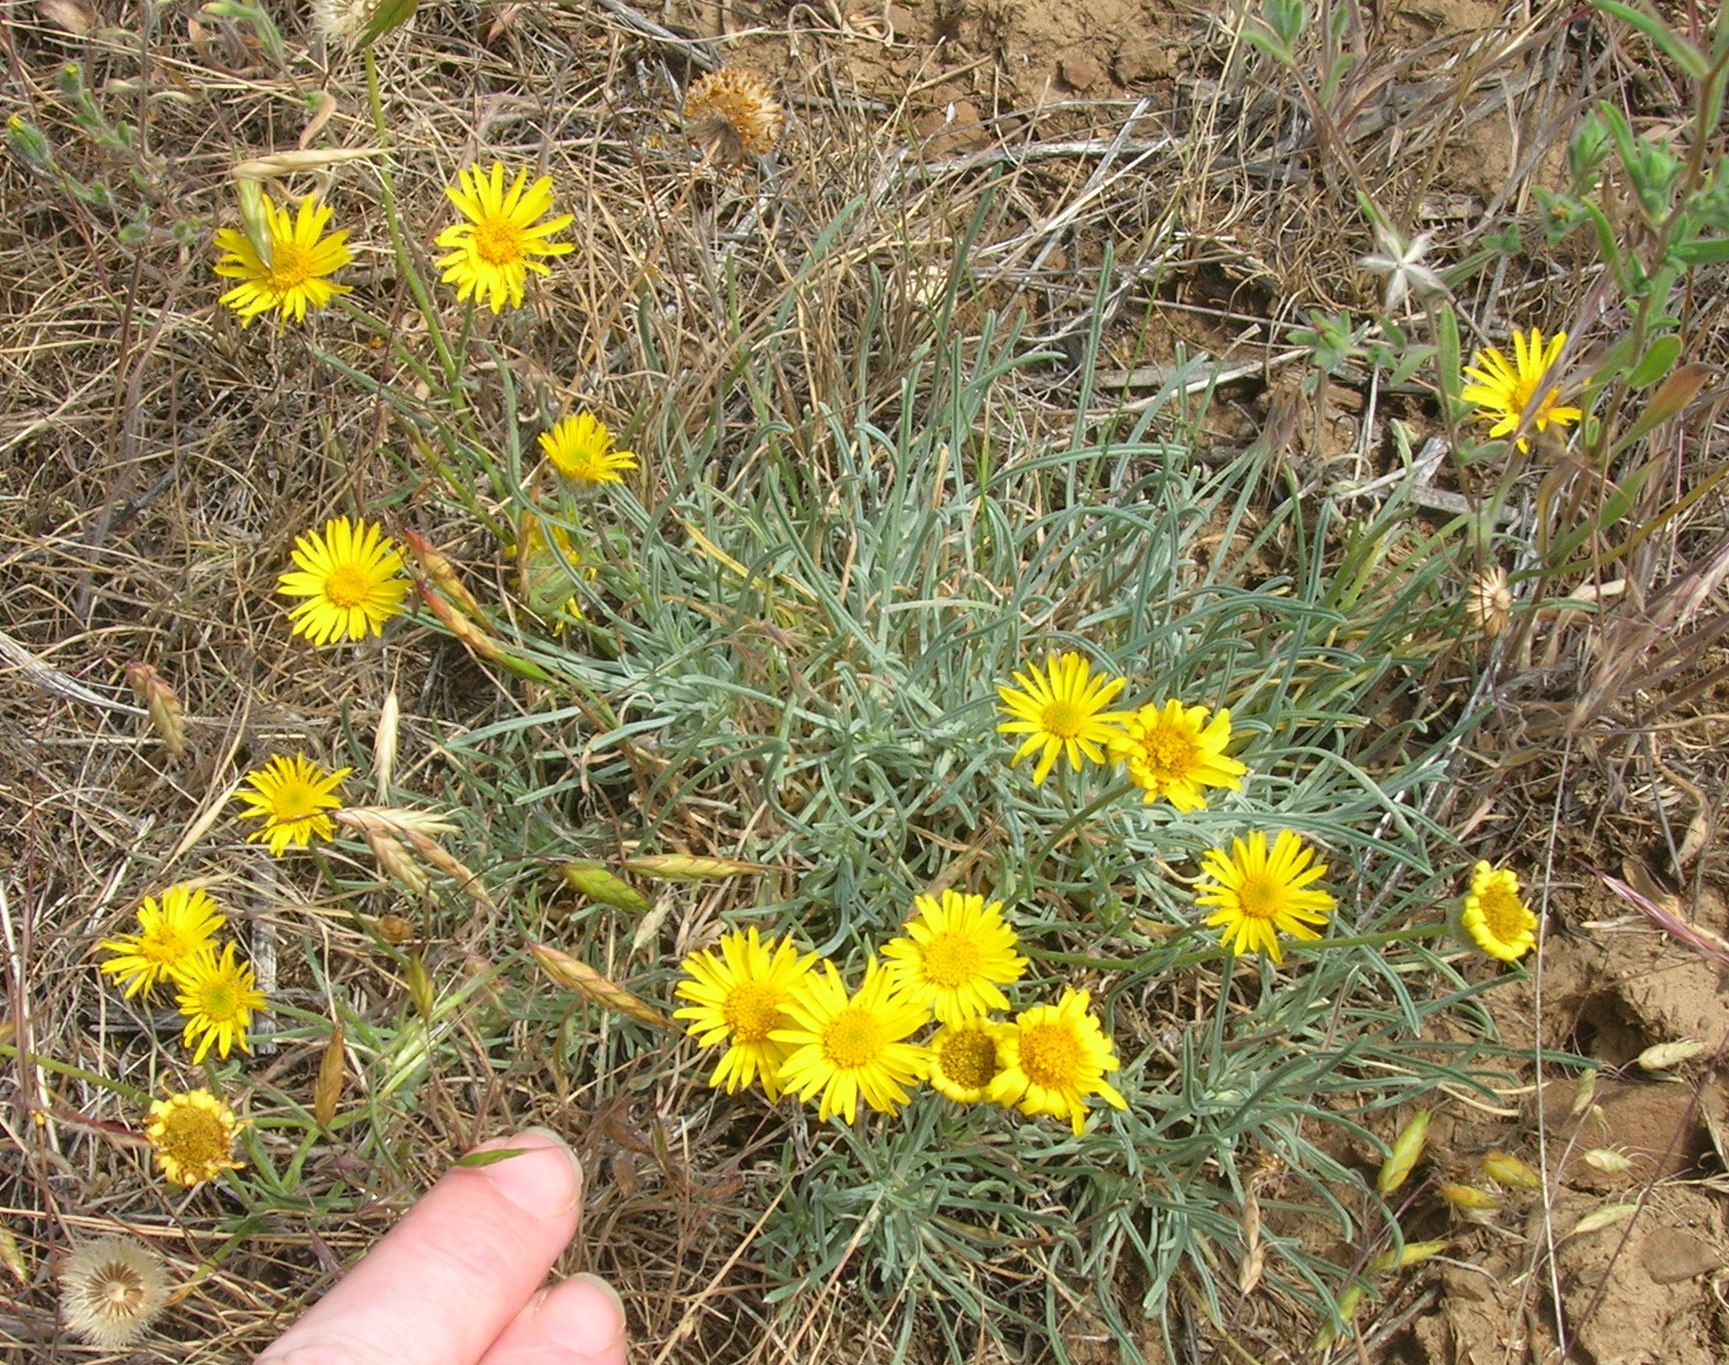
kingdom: Plantae
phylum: Tracheophyta
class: Magnoliopsida
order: Asterales
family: Asteraceae
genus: Erigeron
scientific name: Erigeron linearis
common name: Desert yellow fleabane
